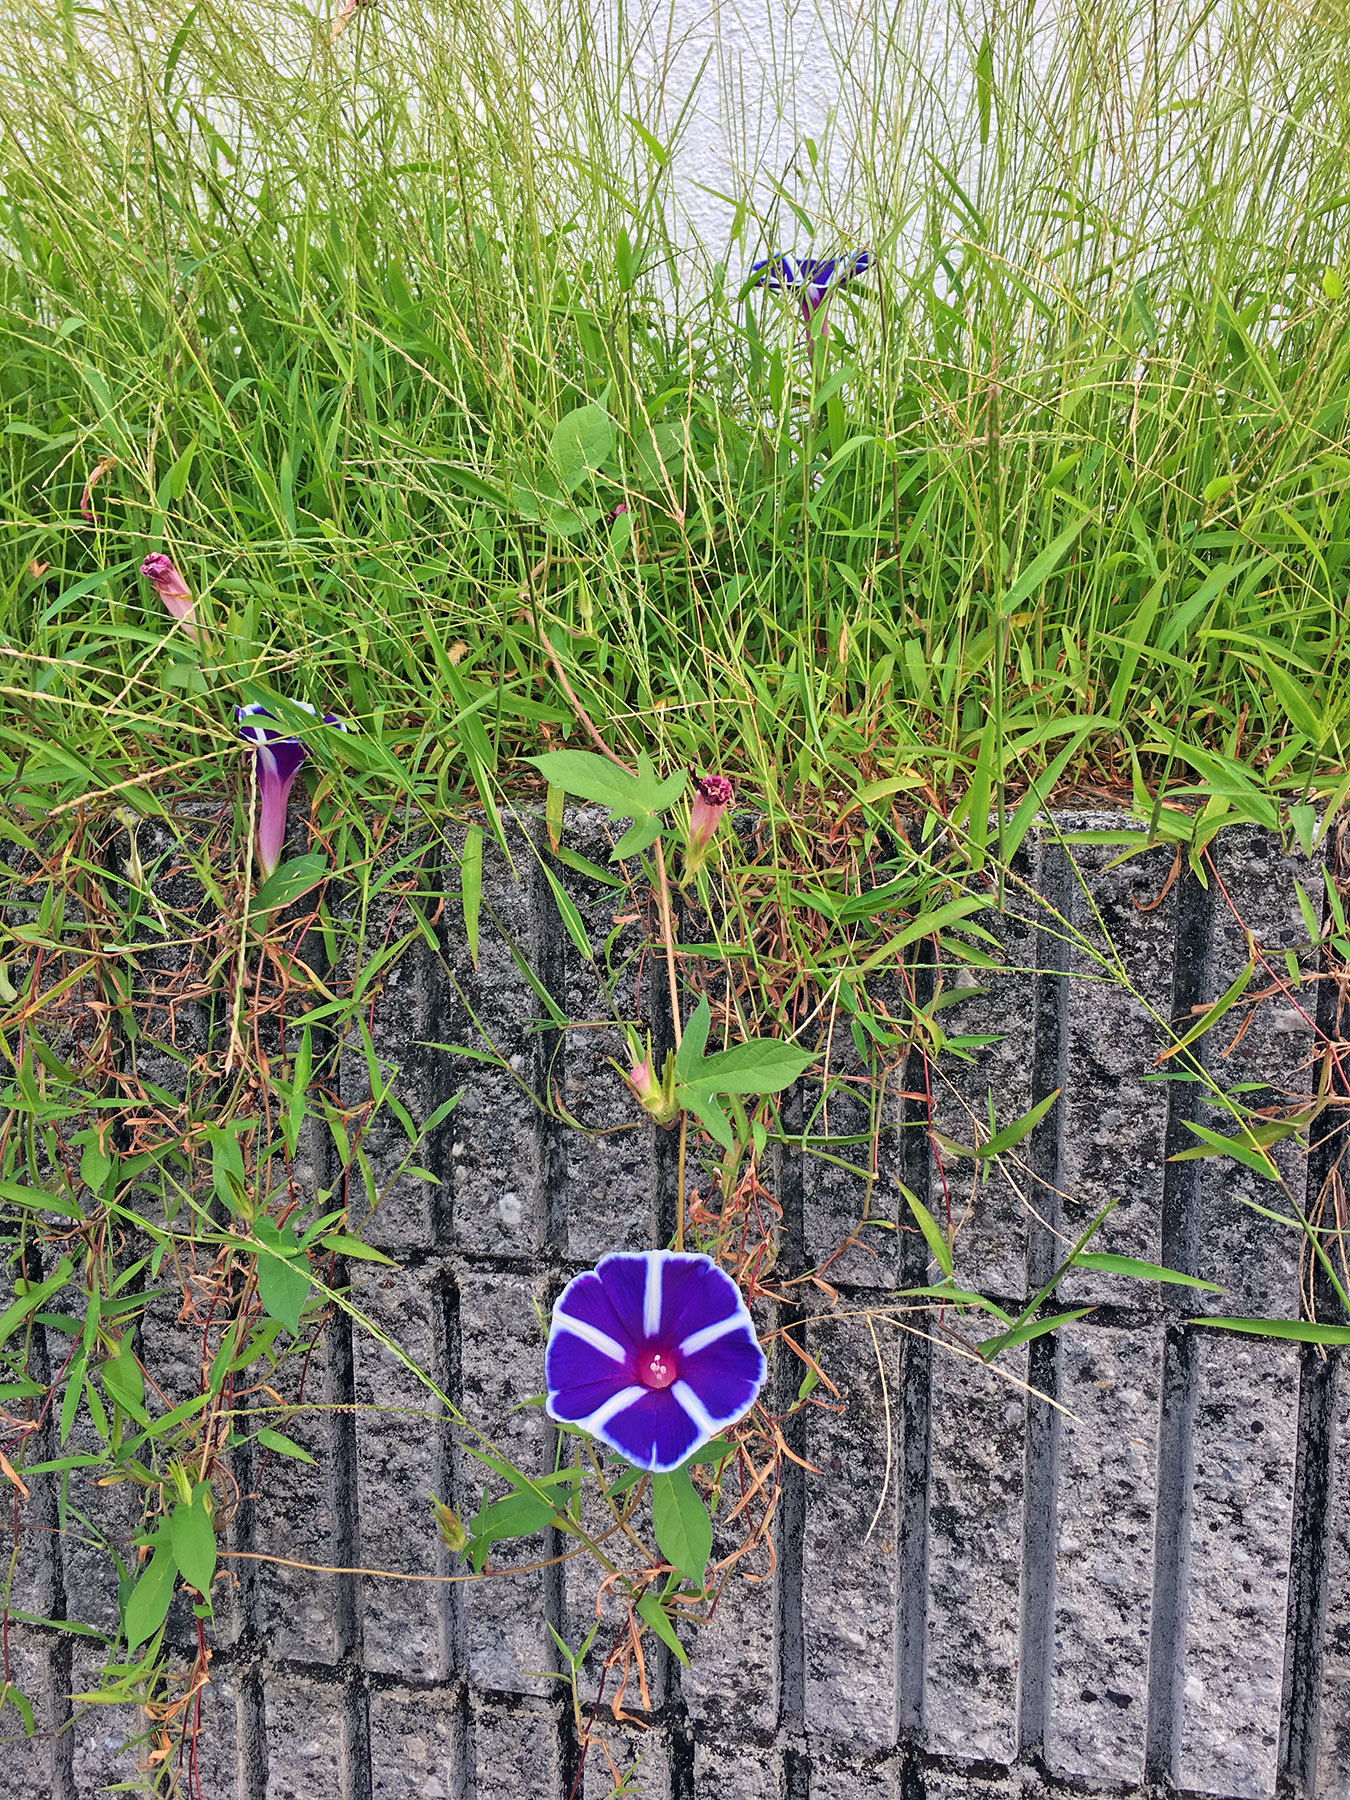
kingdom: Plantae
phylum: Tracheophyta
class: Magnoliopsida
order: Solanales
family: Convolvulaceae
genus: Ipomoea
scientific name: Ipomoea nil
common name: Japanese morning-glory
